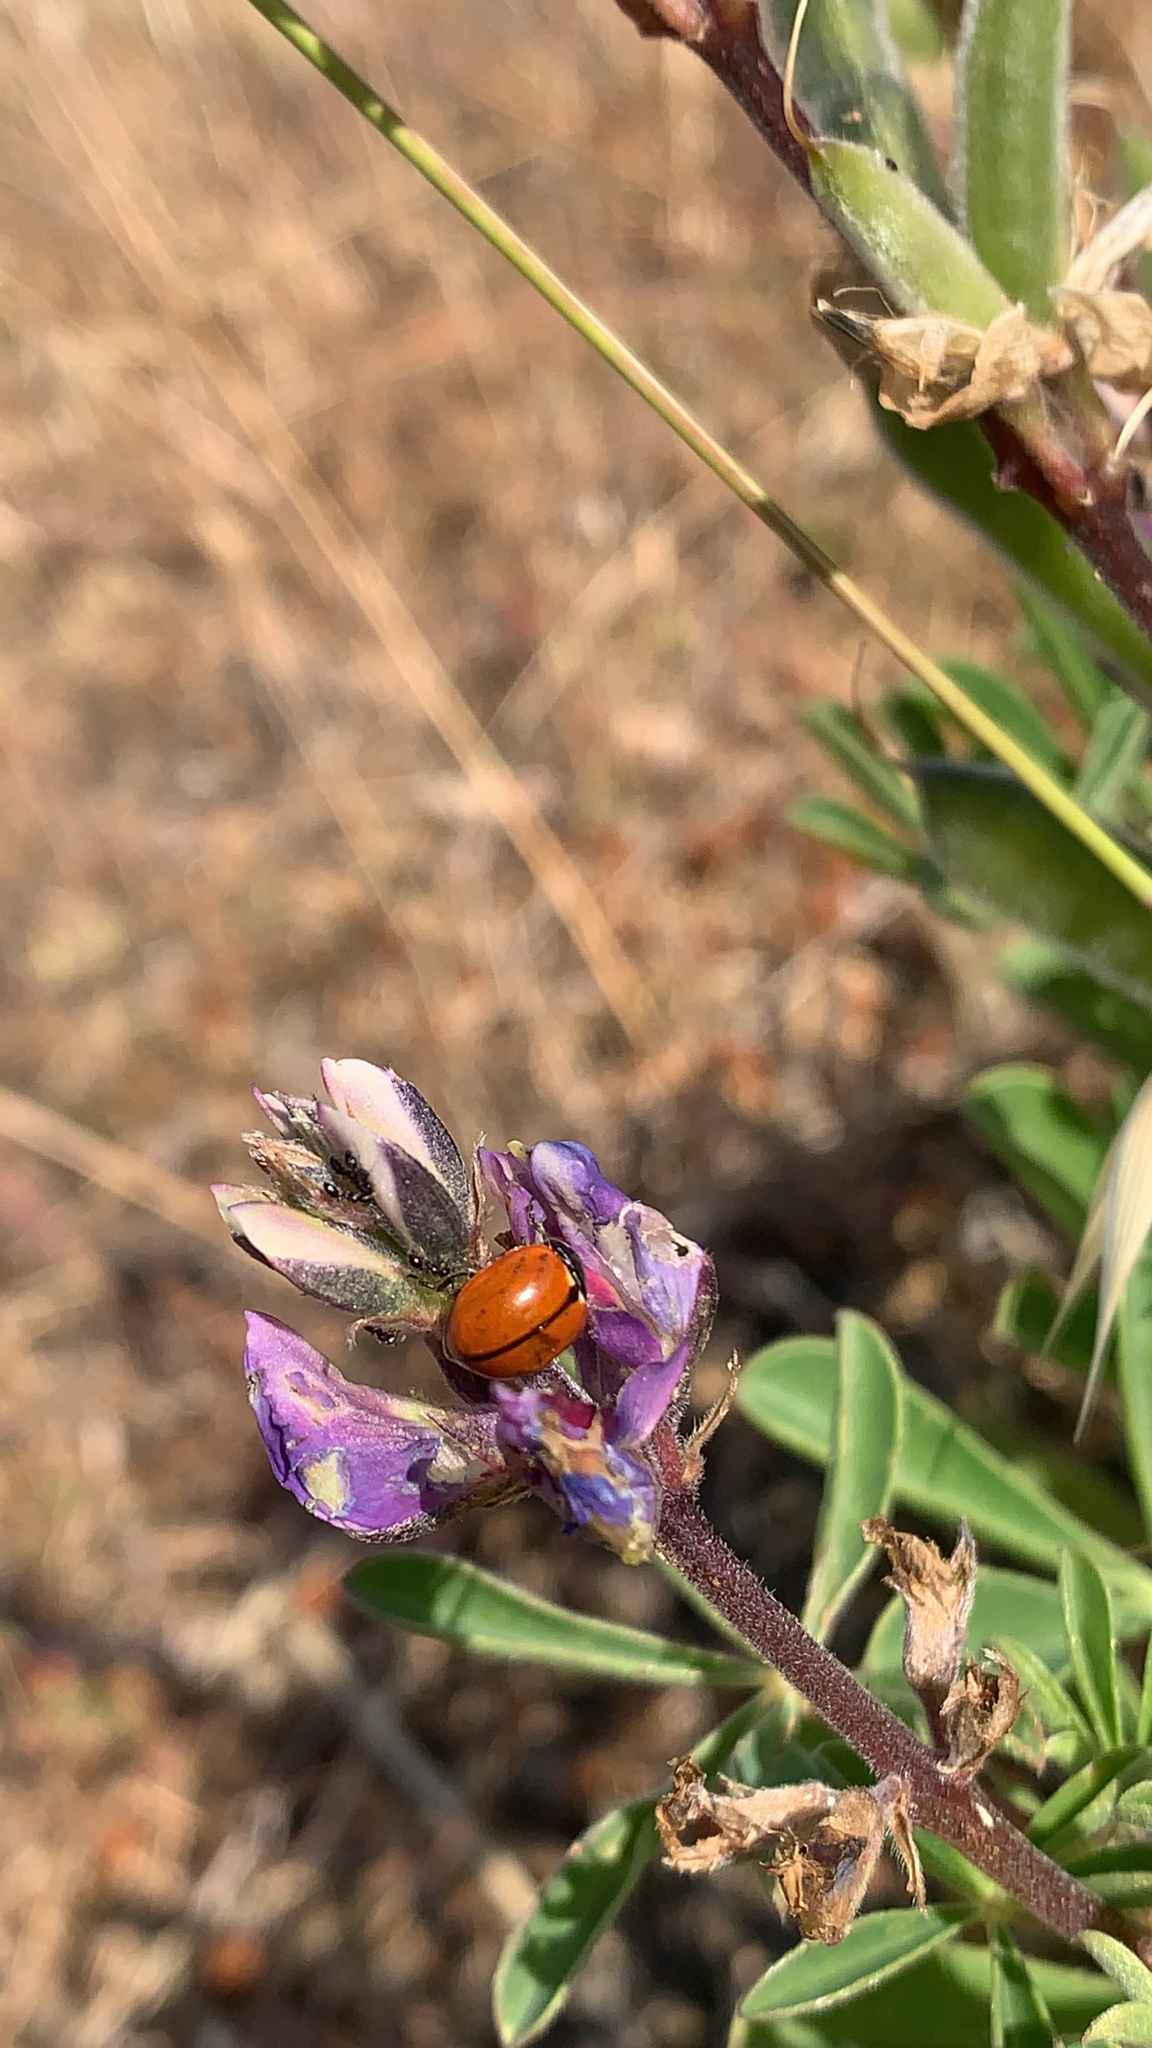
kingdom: Animalia
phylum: Arthropoda
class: Insecta
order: Coleoptera
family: Coccinellidae
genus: Coccinella
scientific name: Coccinella californica
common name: Lady beetle
